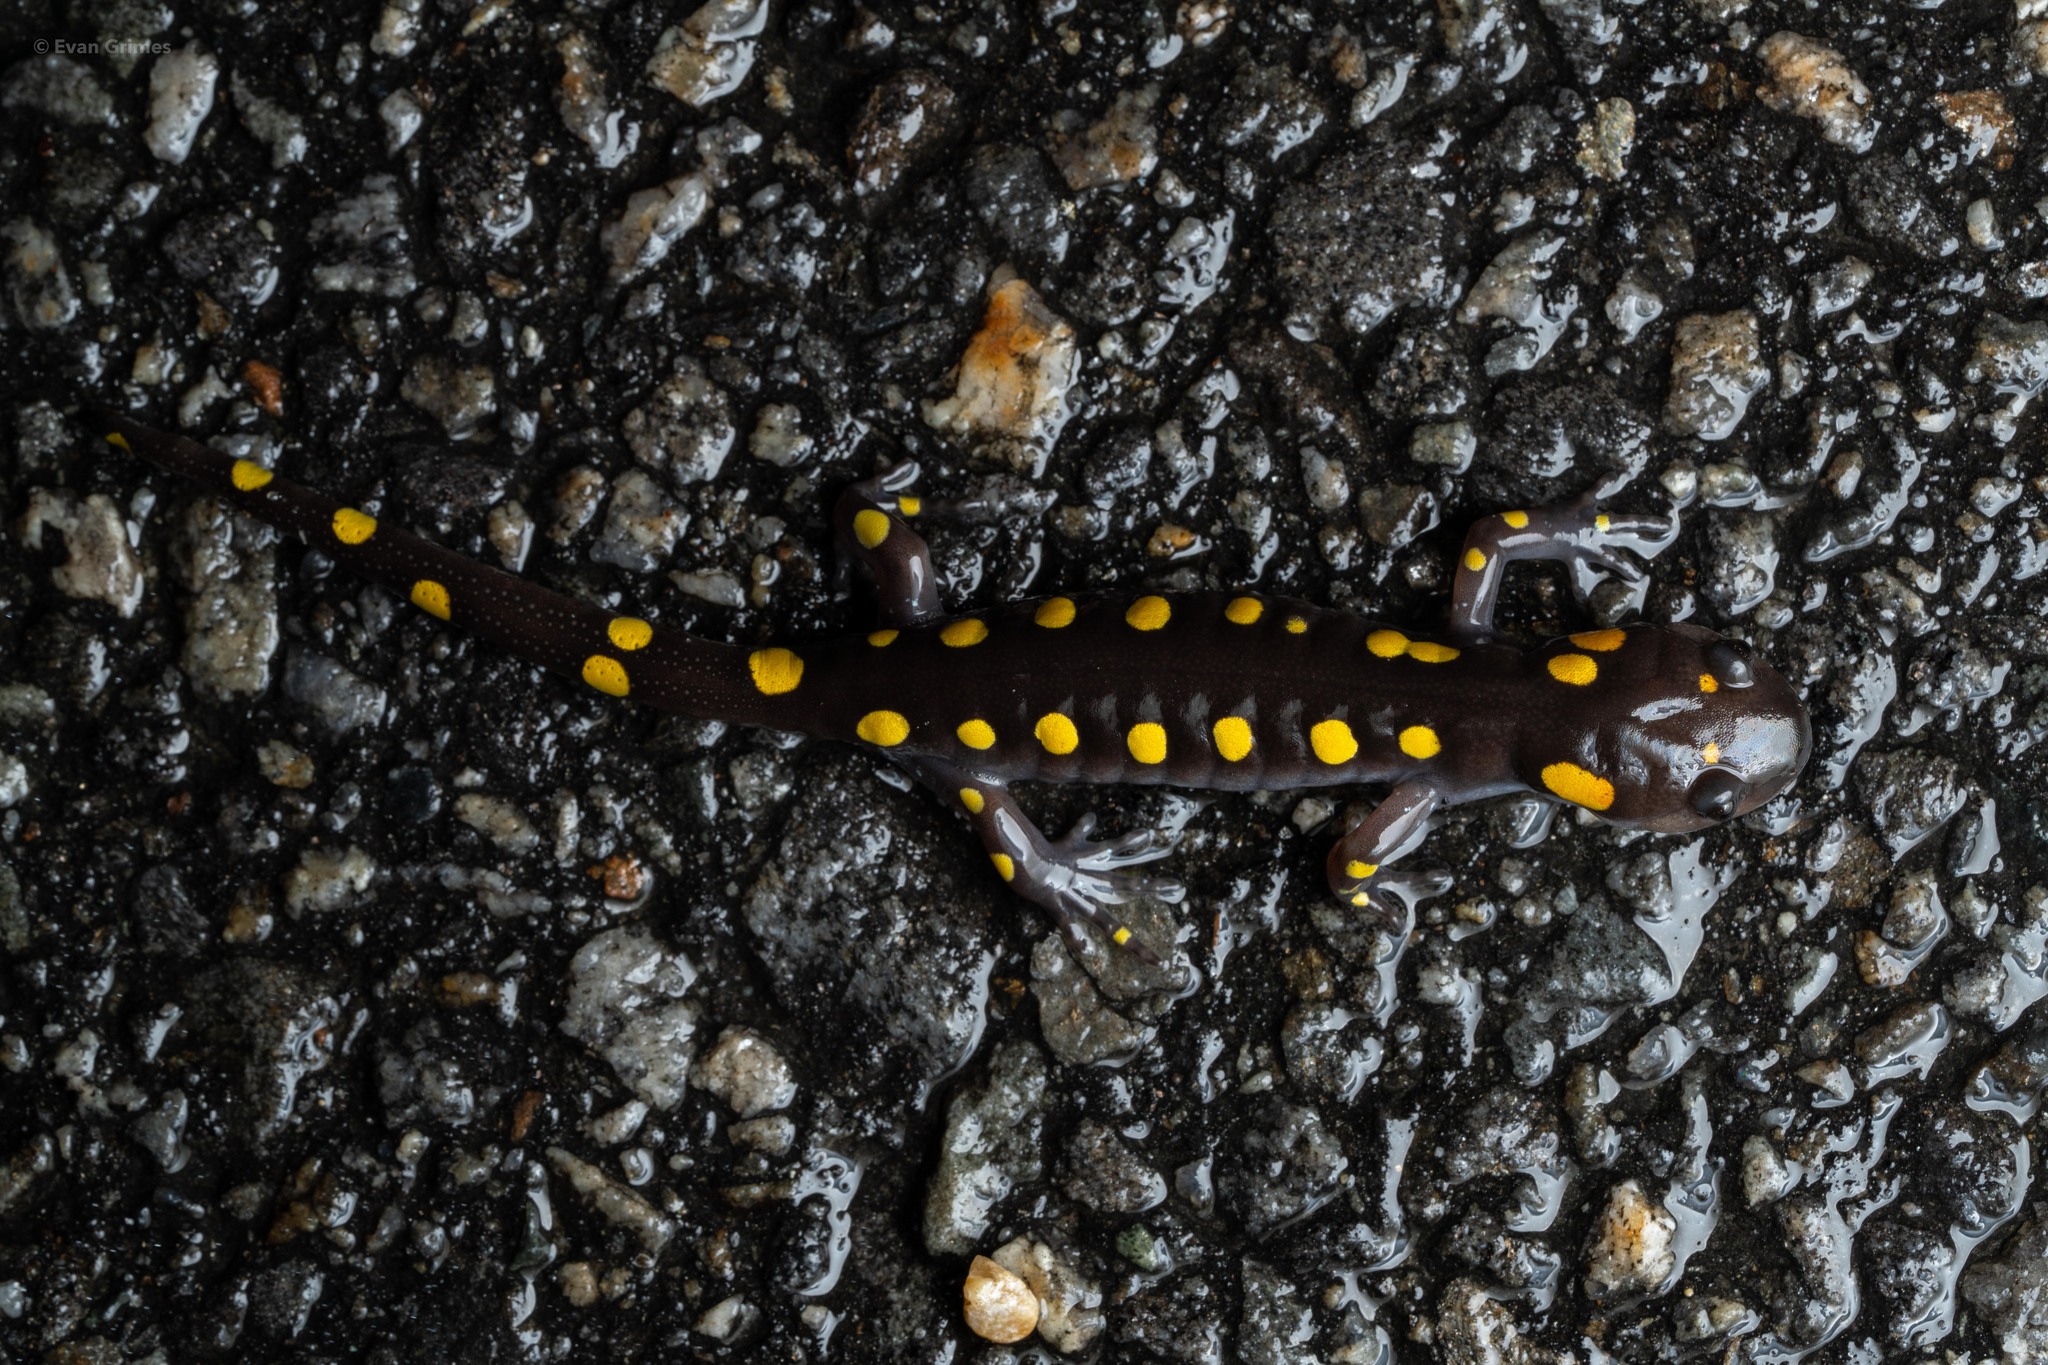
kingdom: Animalia
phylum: Chordata
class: Amphibia
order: Caudata
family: Ambystomatidae
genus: Ambystoma
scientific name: Ambystoma maculatum
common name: Spotted salamander
